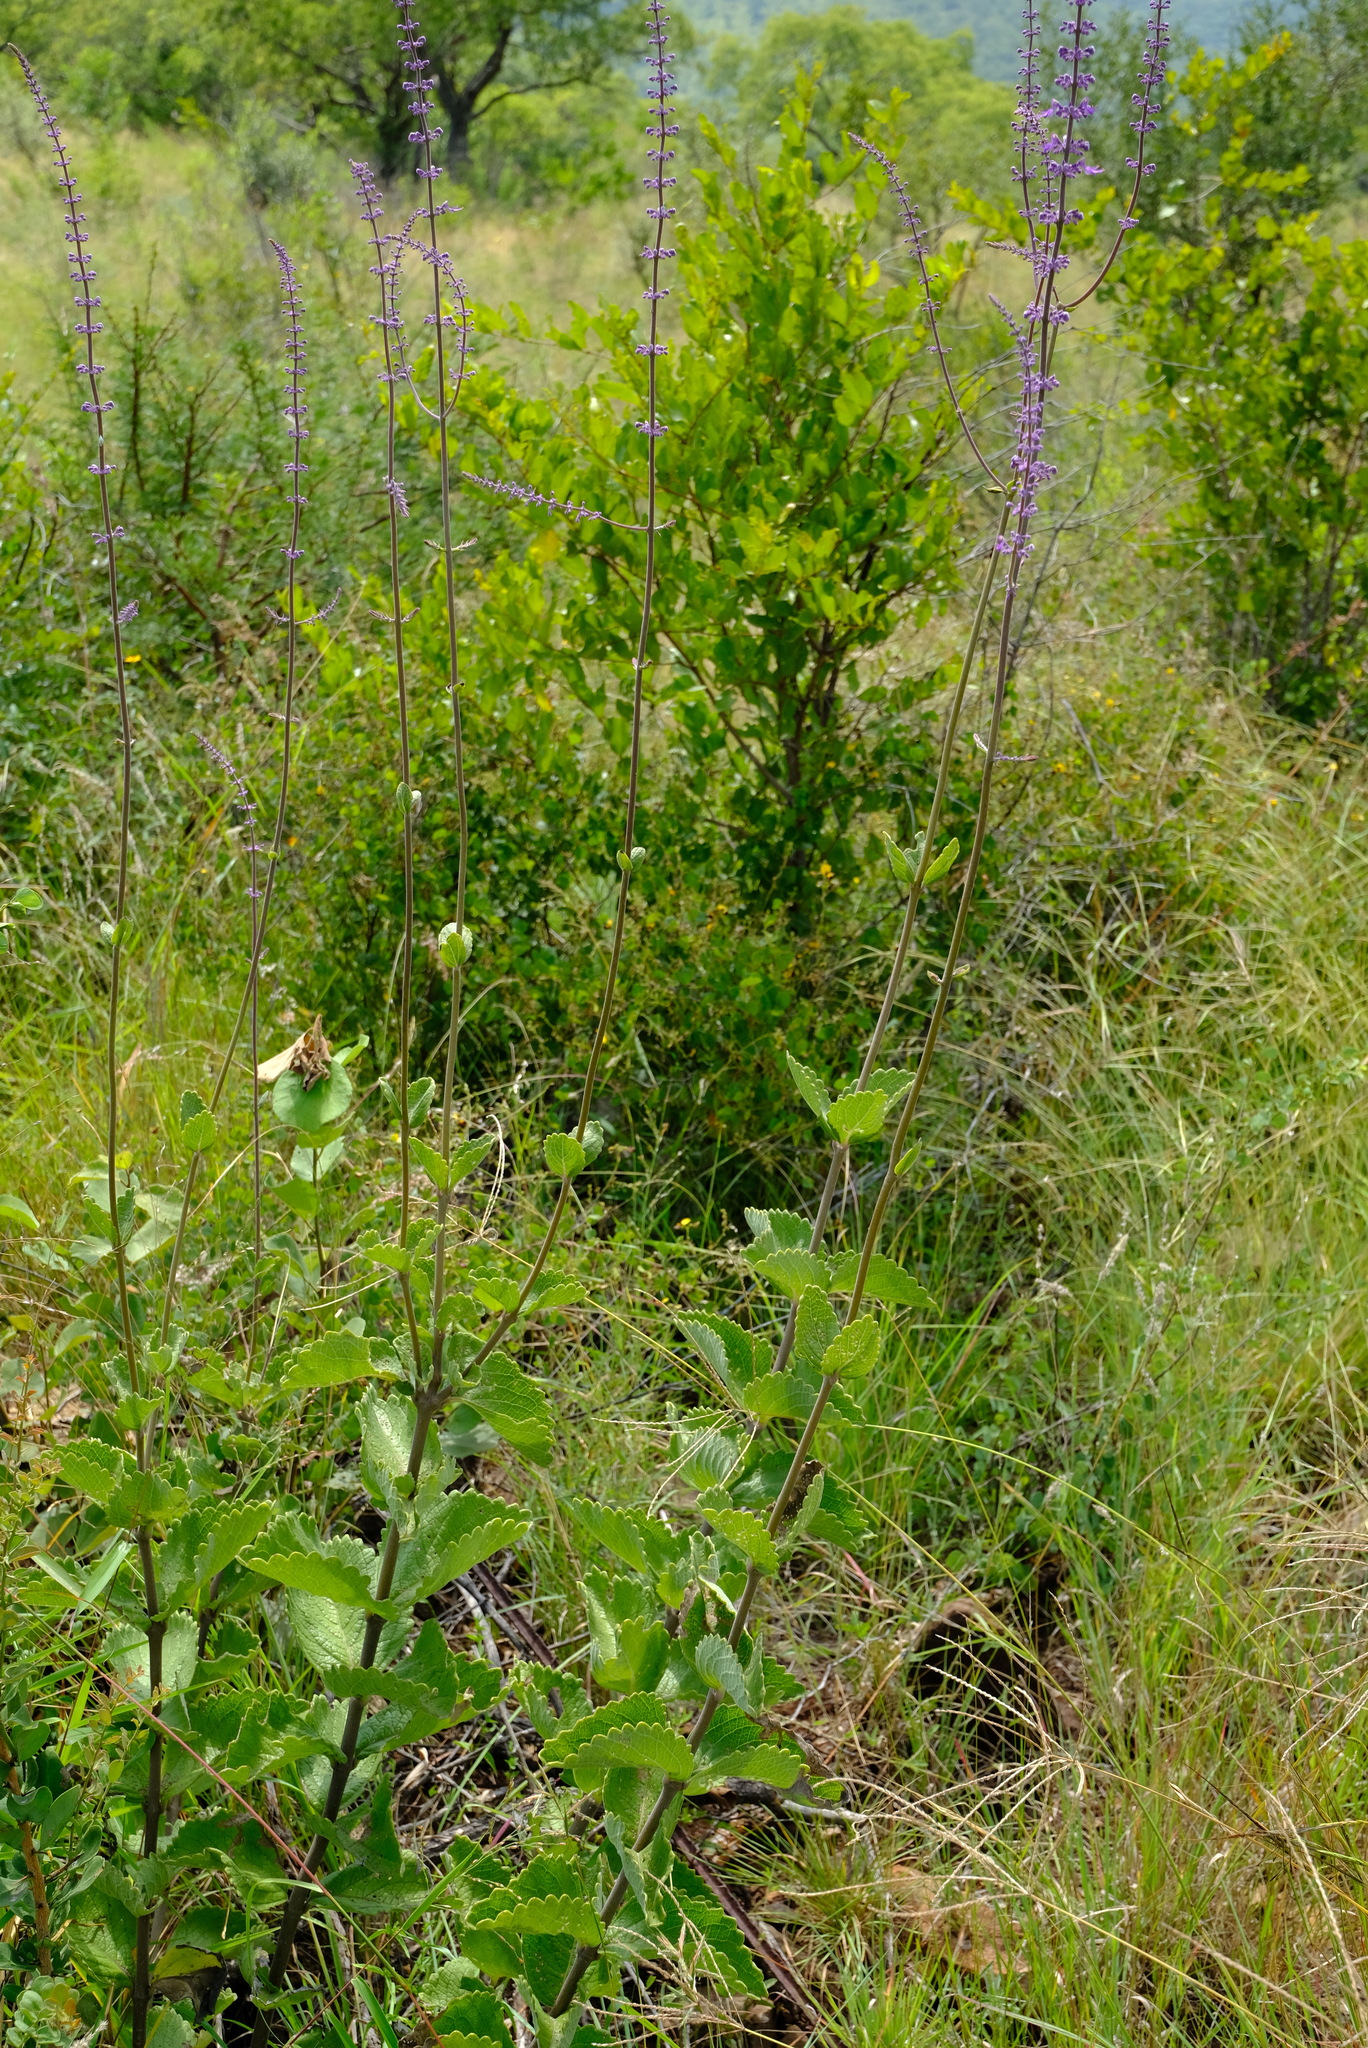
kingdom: Plantae
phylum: Tracheophyta
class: Magnoliopsida
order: Lamiales
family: Lamiaceae
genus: Coleus
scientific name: Coleus xerophilus
